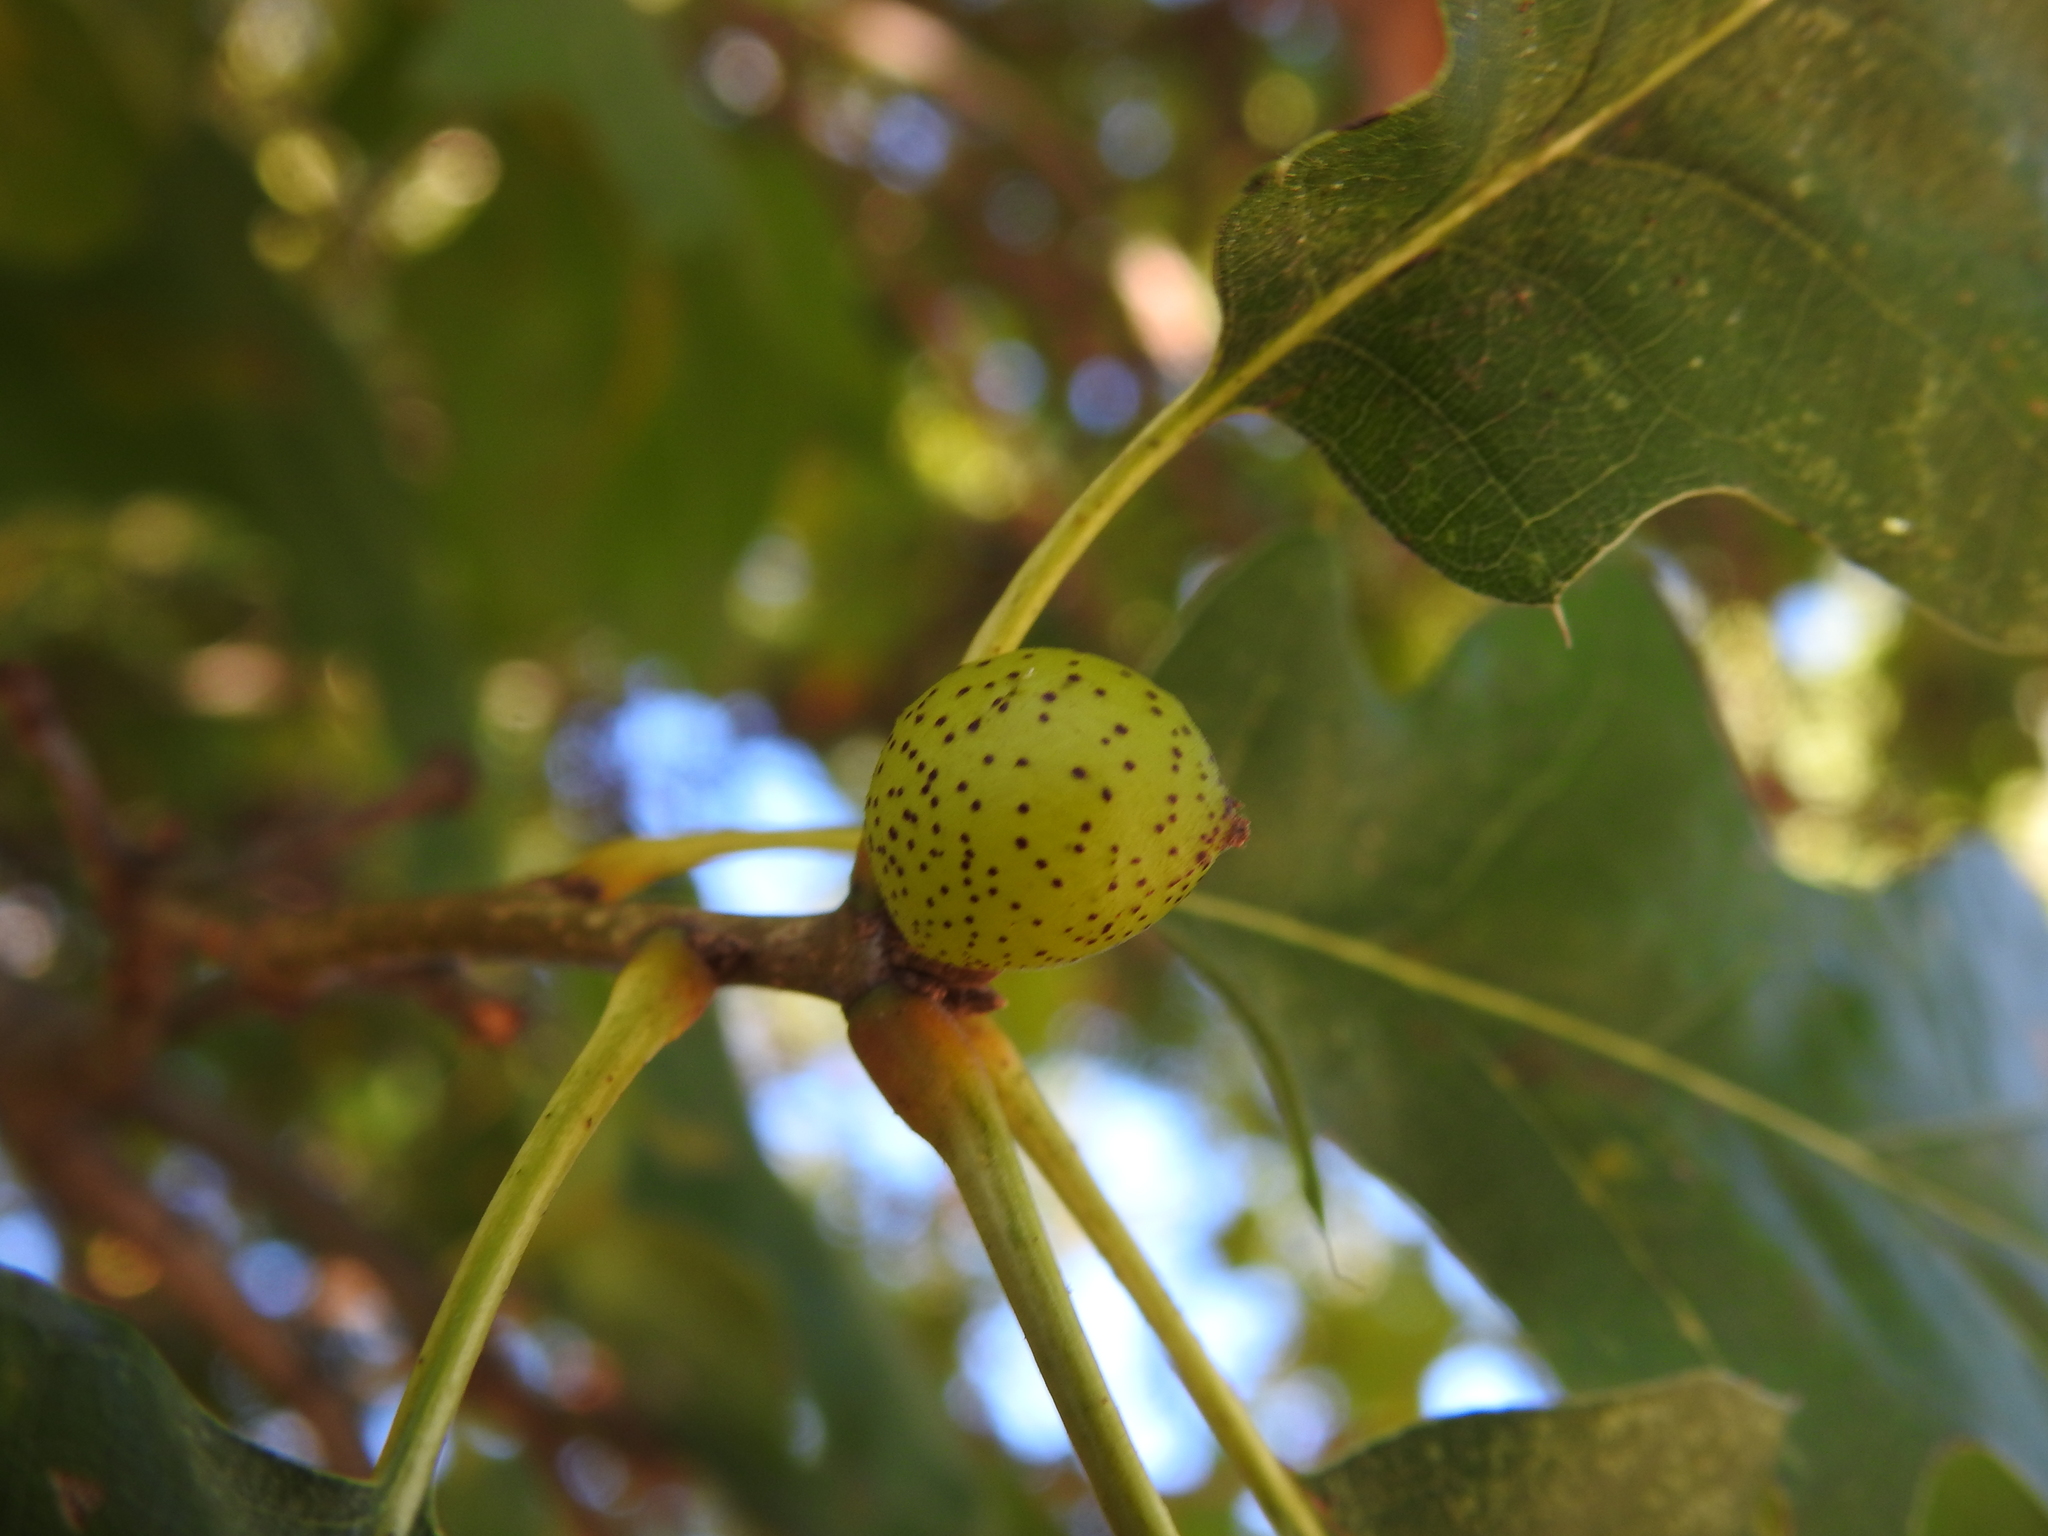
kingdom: Animalia
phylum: Arthropoda
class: Insecta
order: Hymenoptera
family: Cynipidae
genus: Amphibolips
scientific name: Amphibolips
